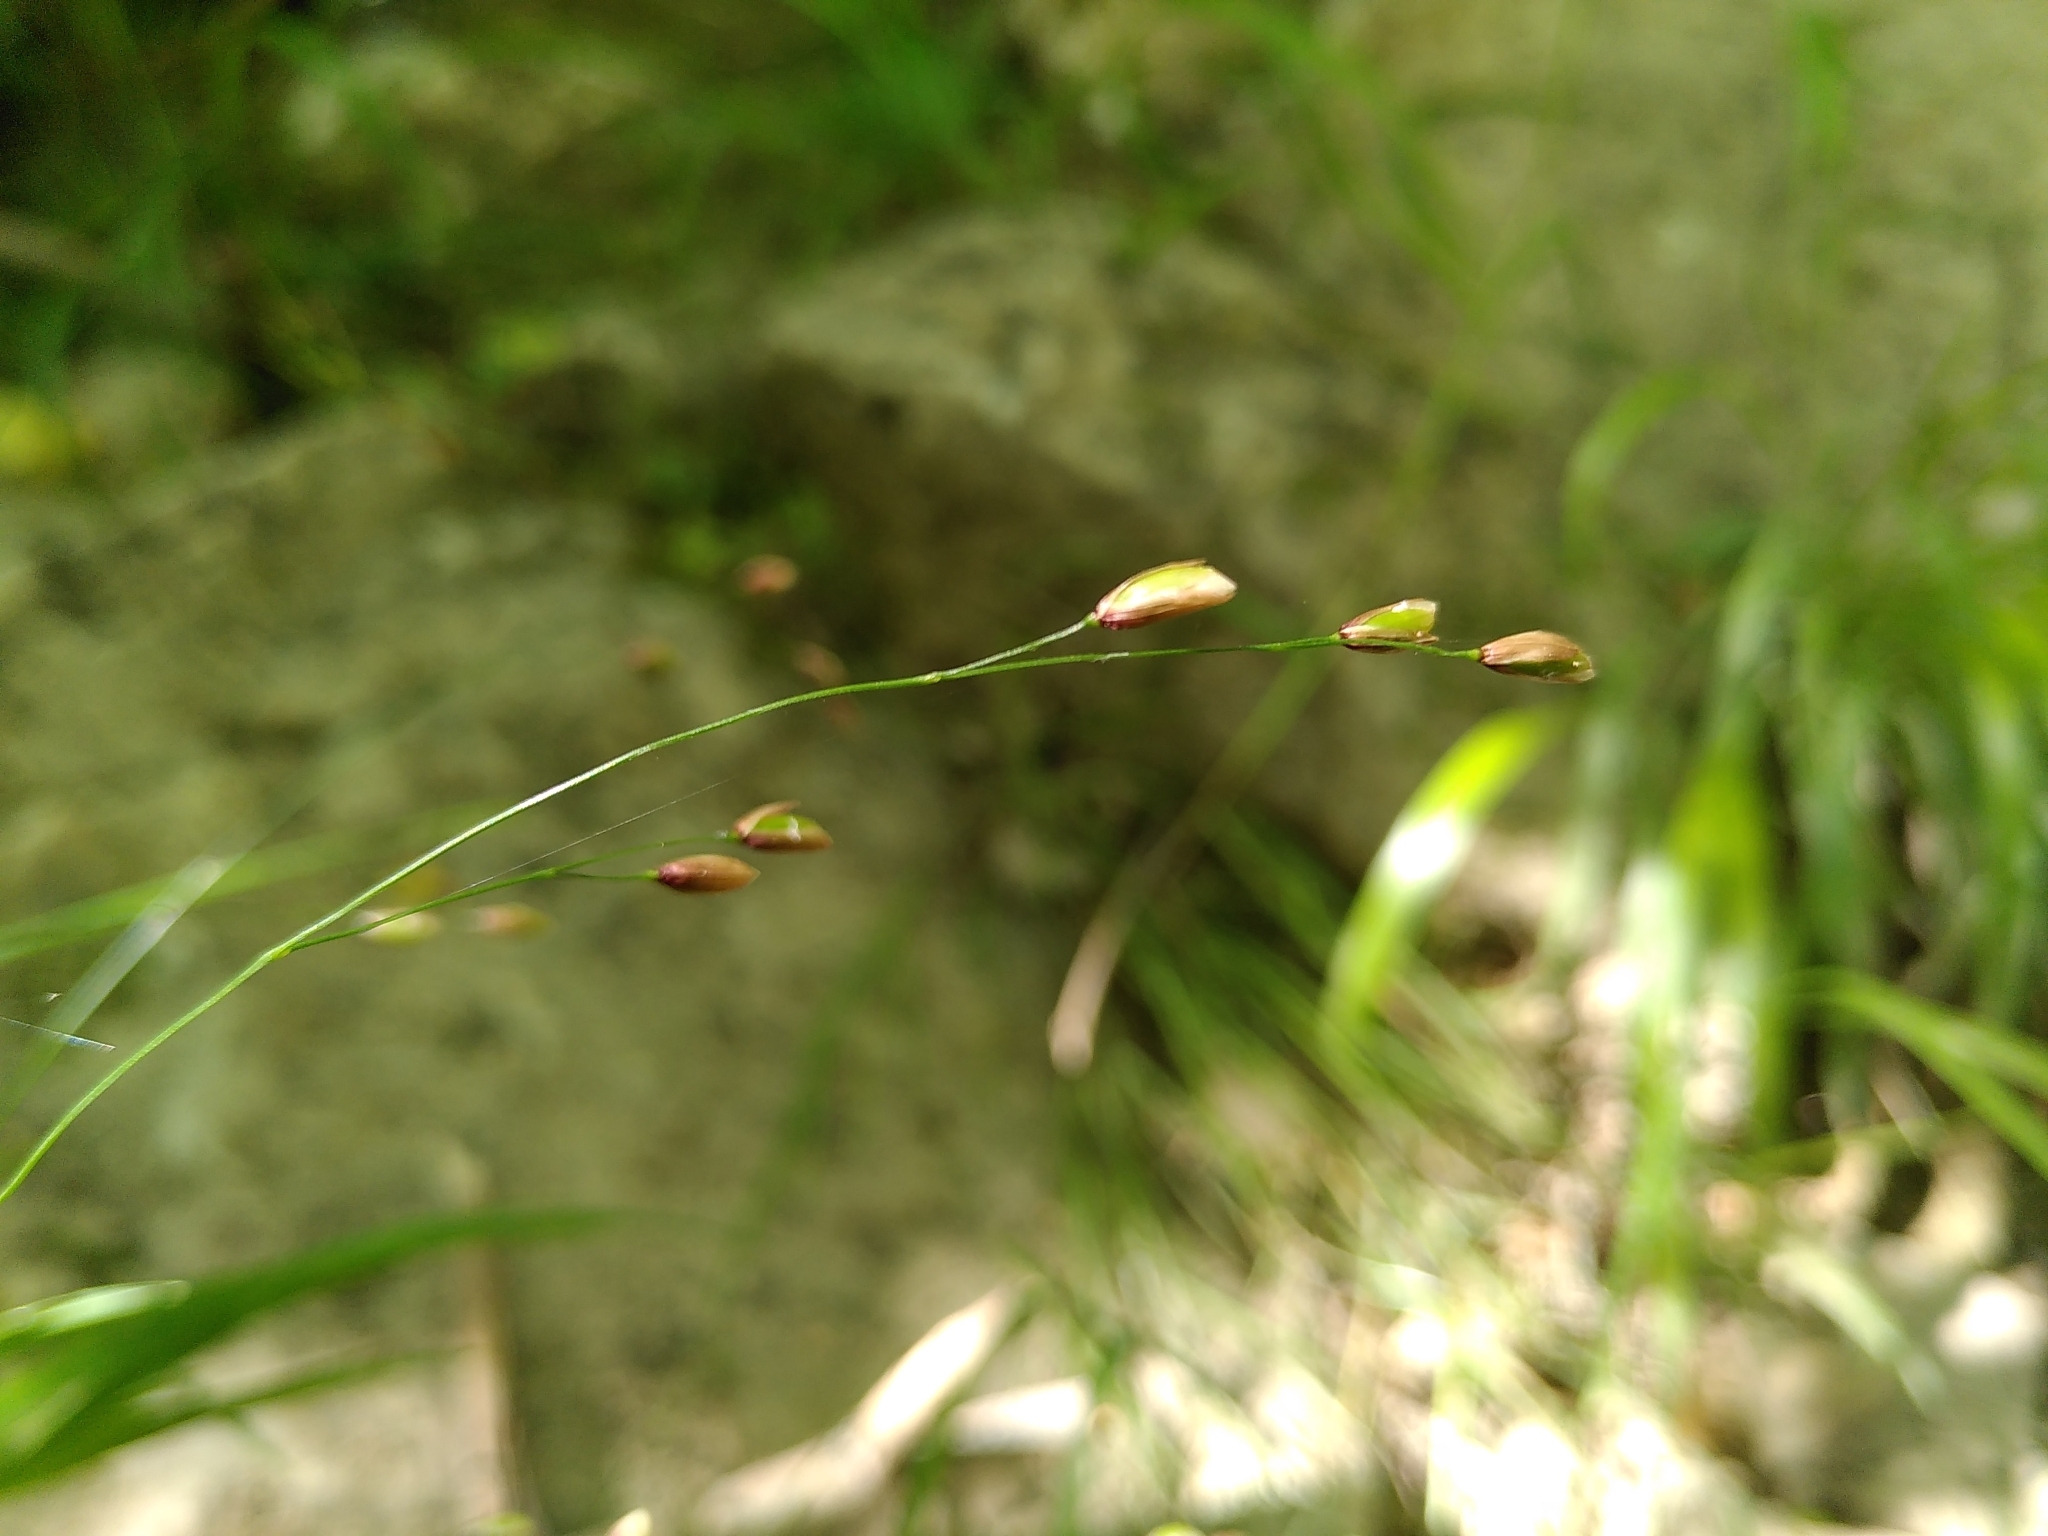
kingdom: Plantae
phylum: Tracheophyta
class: Liliopsida
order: Poales
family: Poaceae
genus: Melica
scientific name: Melica uniflora
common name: Wood melick
